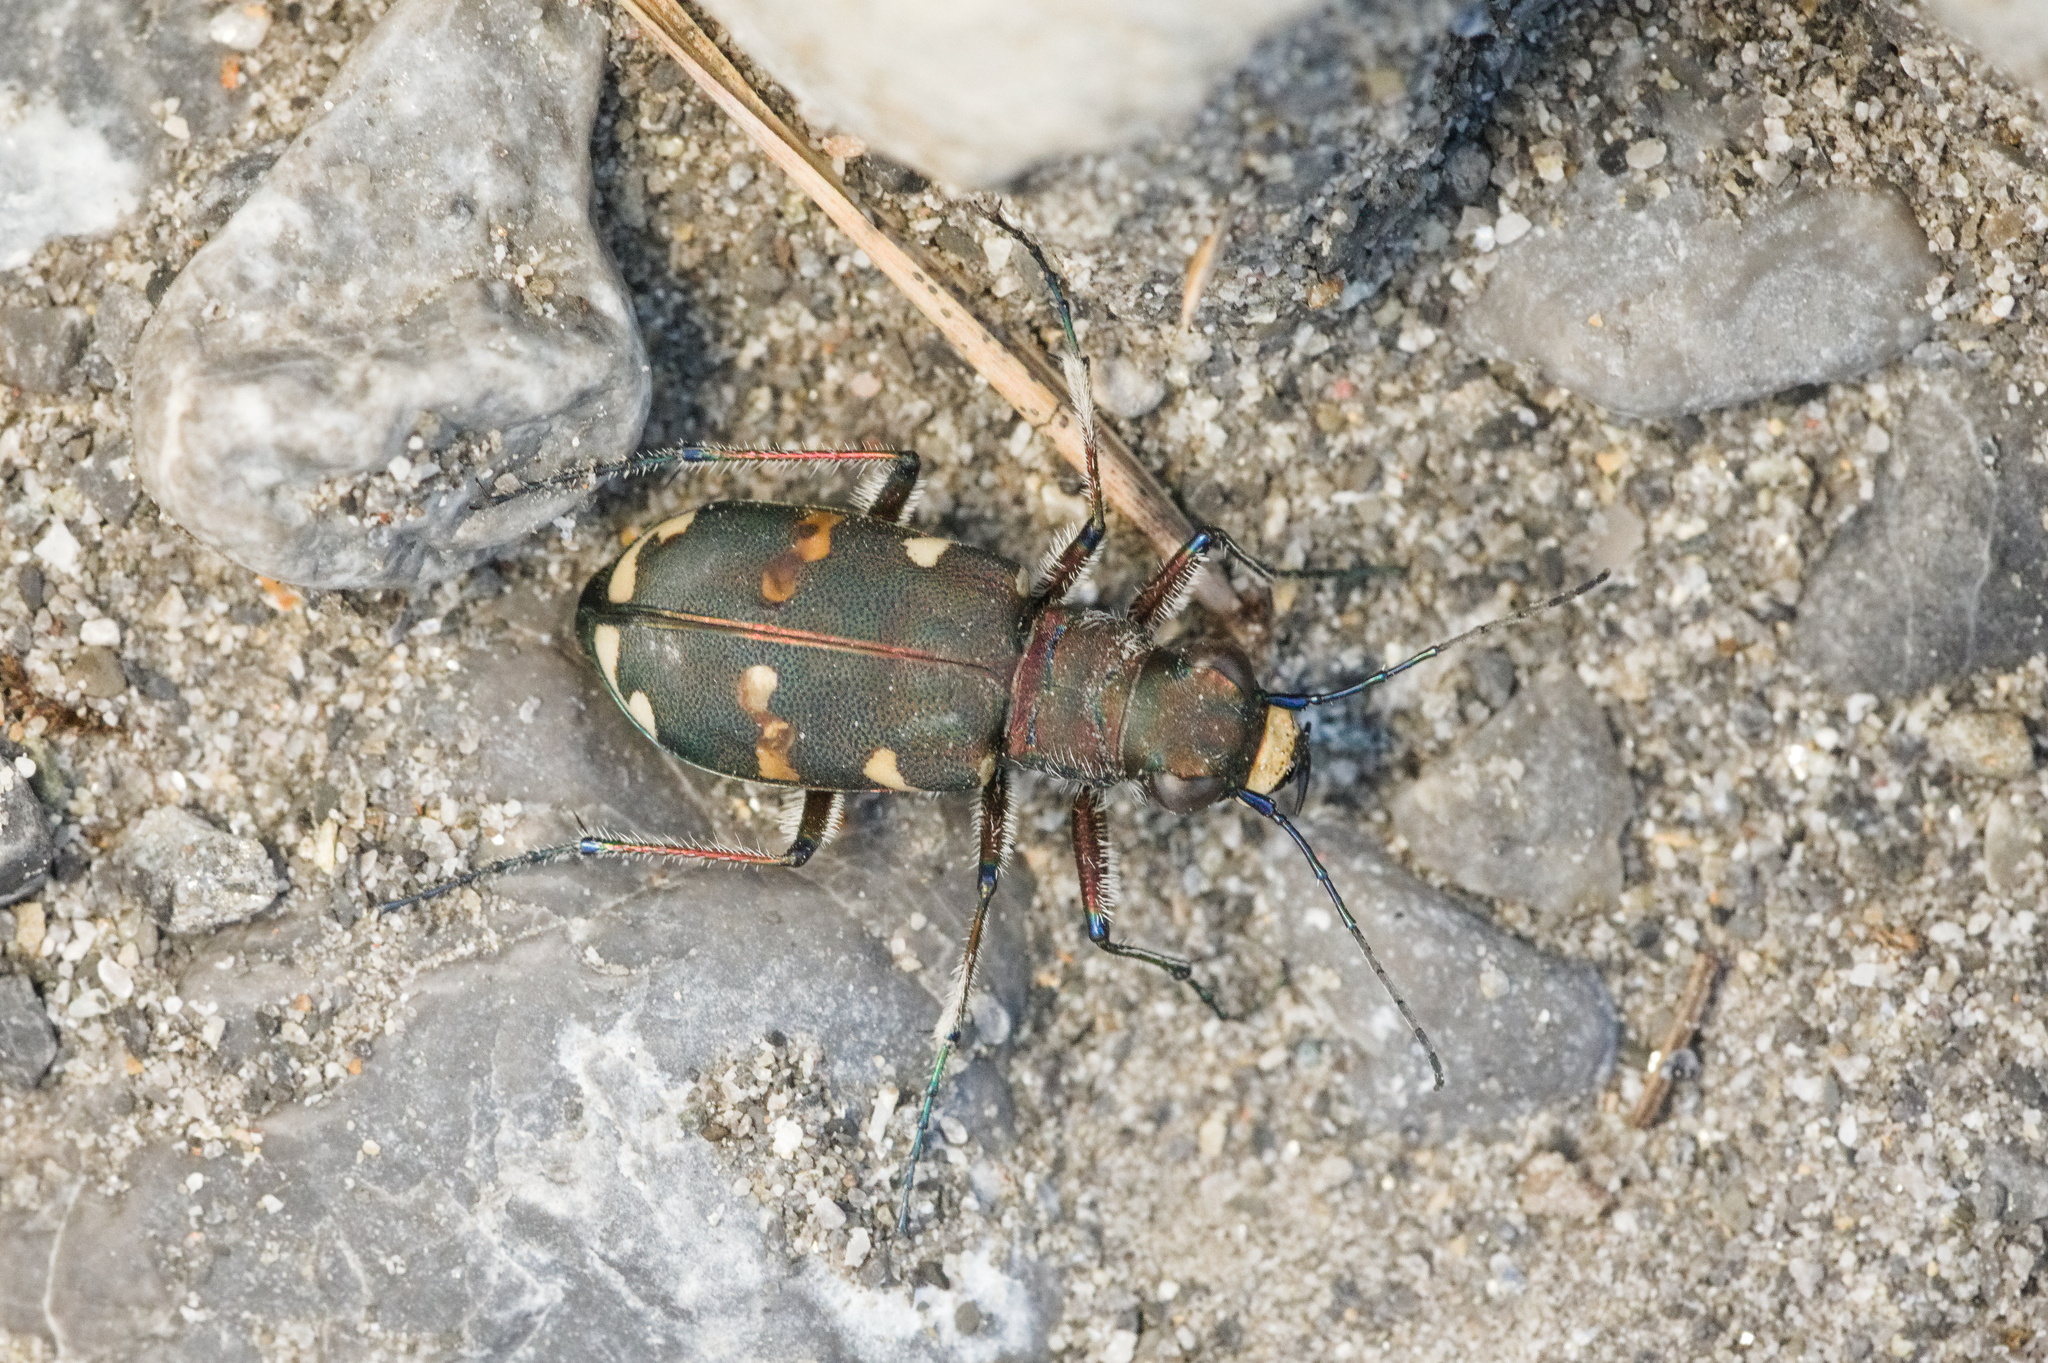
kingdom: Animalia
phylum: Arthropoda
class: Insecta
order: Coleoptera
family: Carabidae
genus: Cicindela
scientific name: Cicindela hybrida
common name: Northern dune tiger beetle
